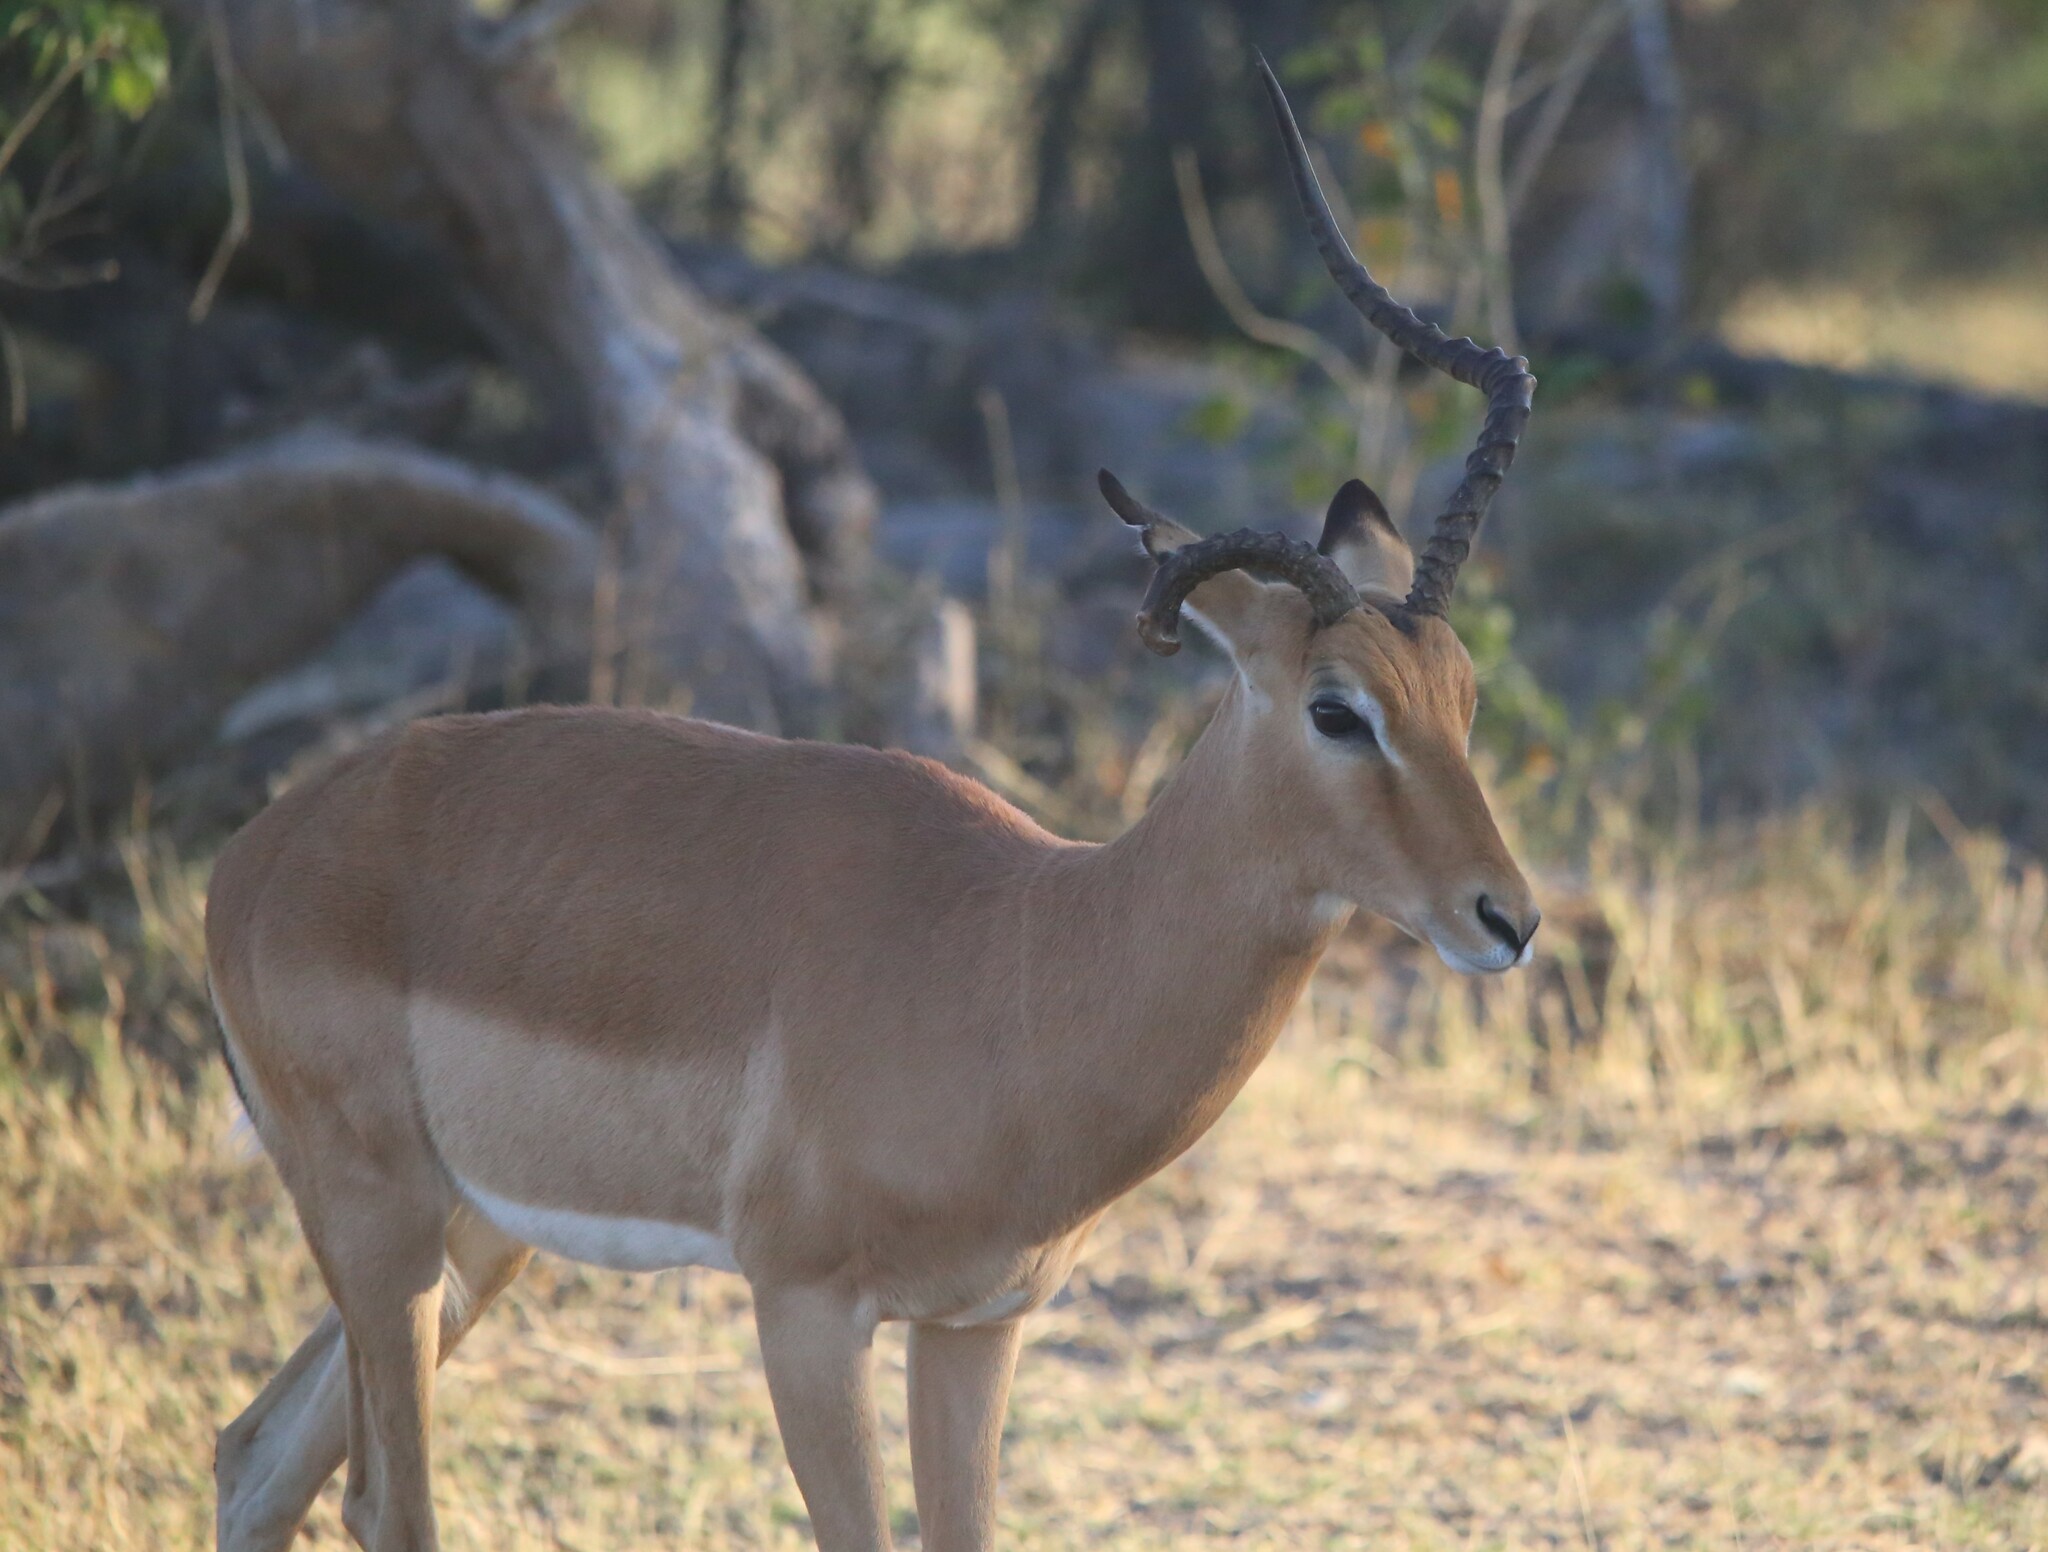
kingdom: Animalia
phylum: Chordata
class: Mammalia
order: Artiodactyla
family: Bovidae
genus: Aepyceros
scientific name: Aepyceros melampus
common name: Impala
